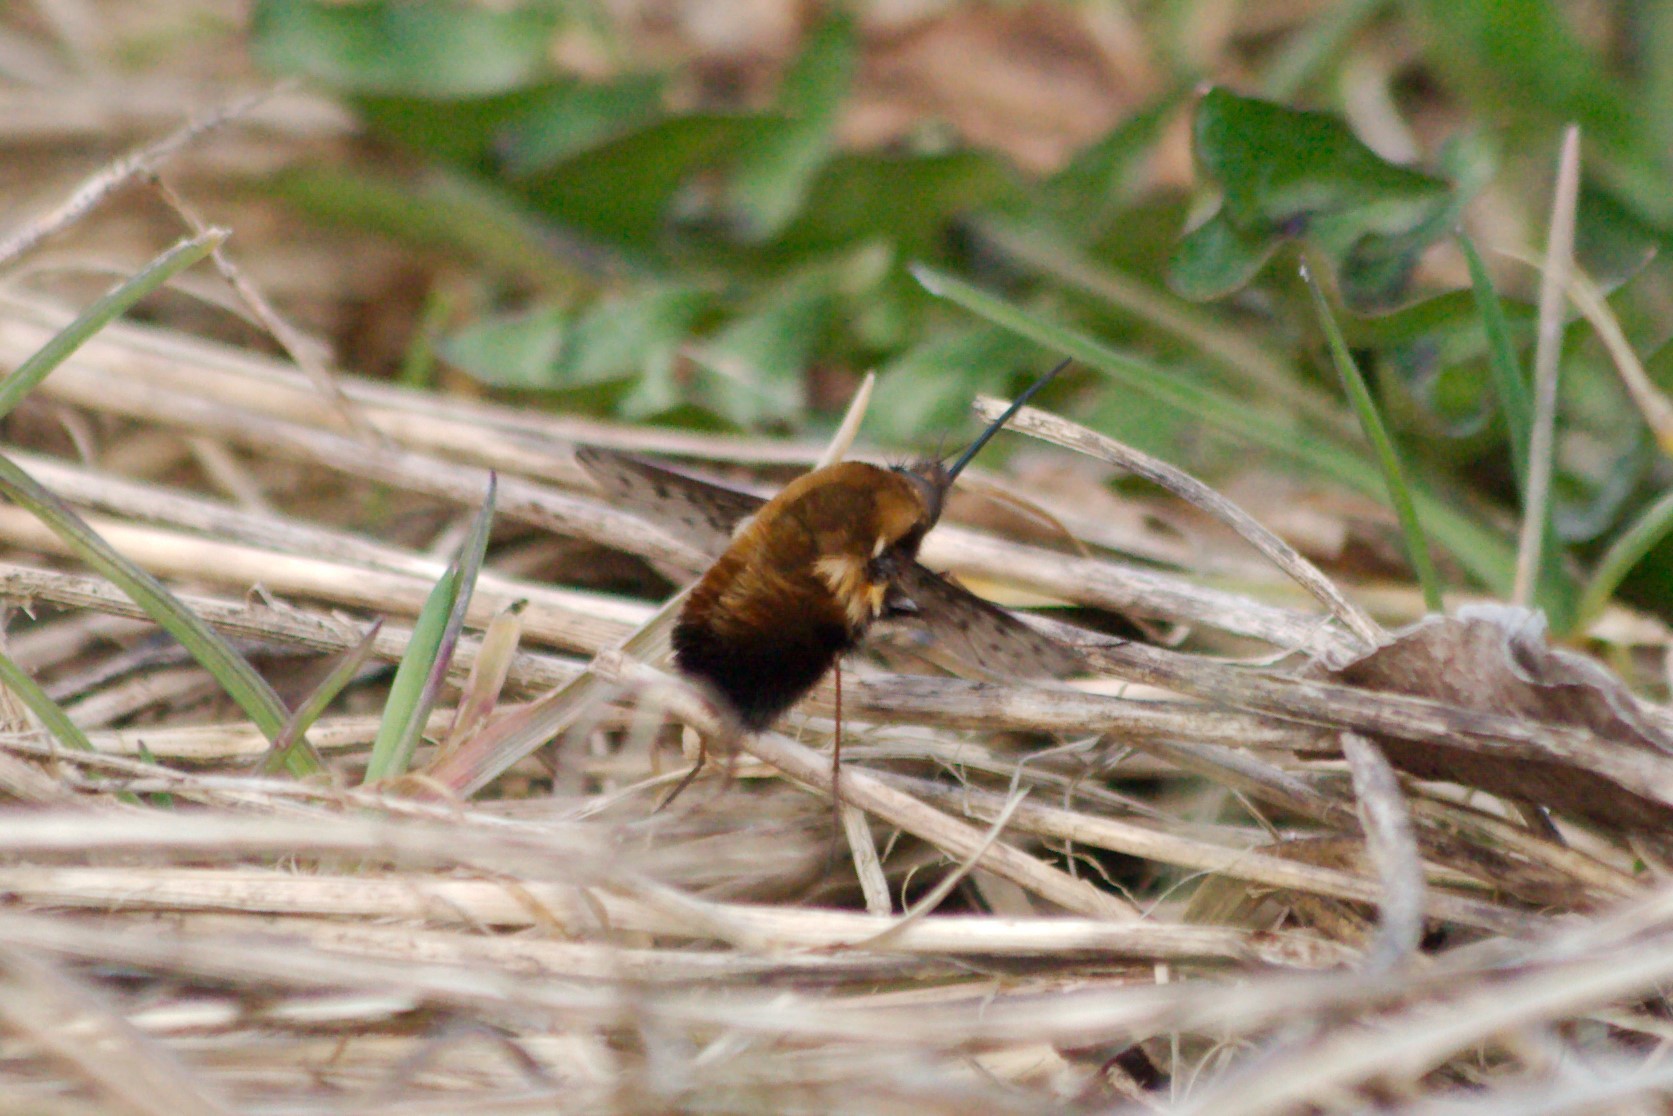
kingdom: Animalia
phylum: Arthropoda
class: Insecta
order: Diptera
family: Bombyliidae
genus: Bombylius
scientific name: Bombylius discolor
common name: Dotted bee-fly
